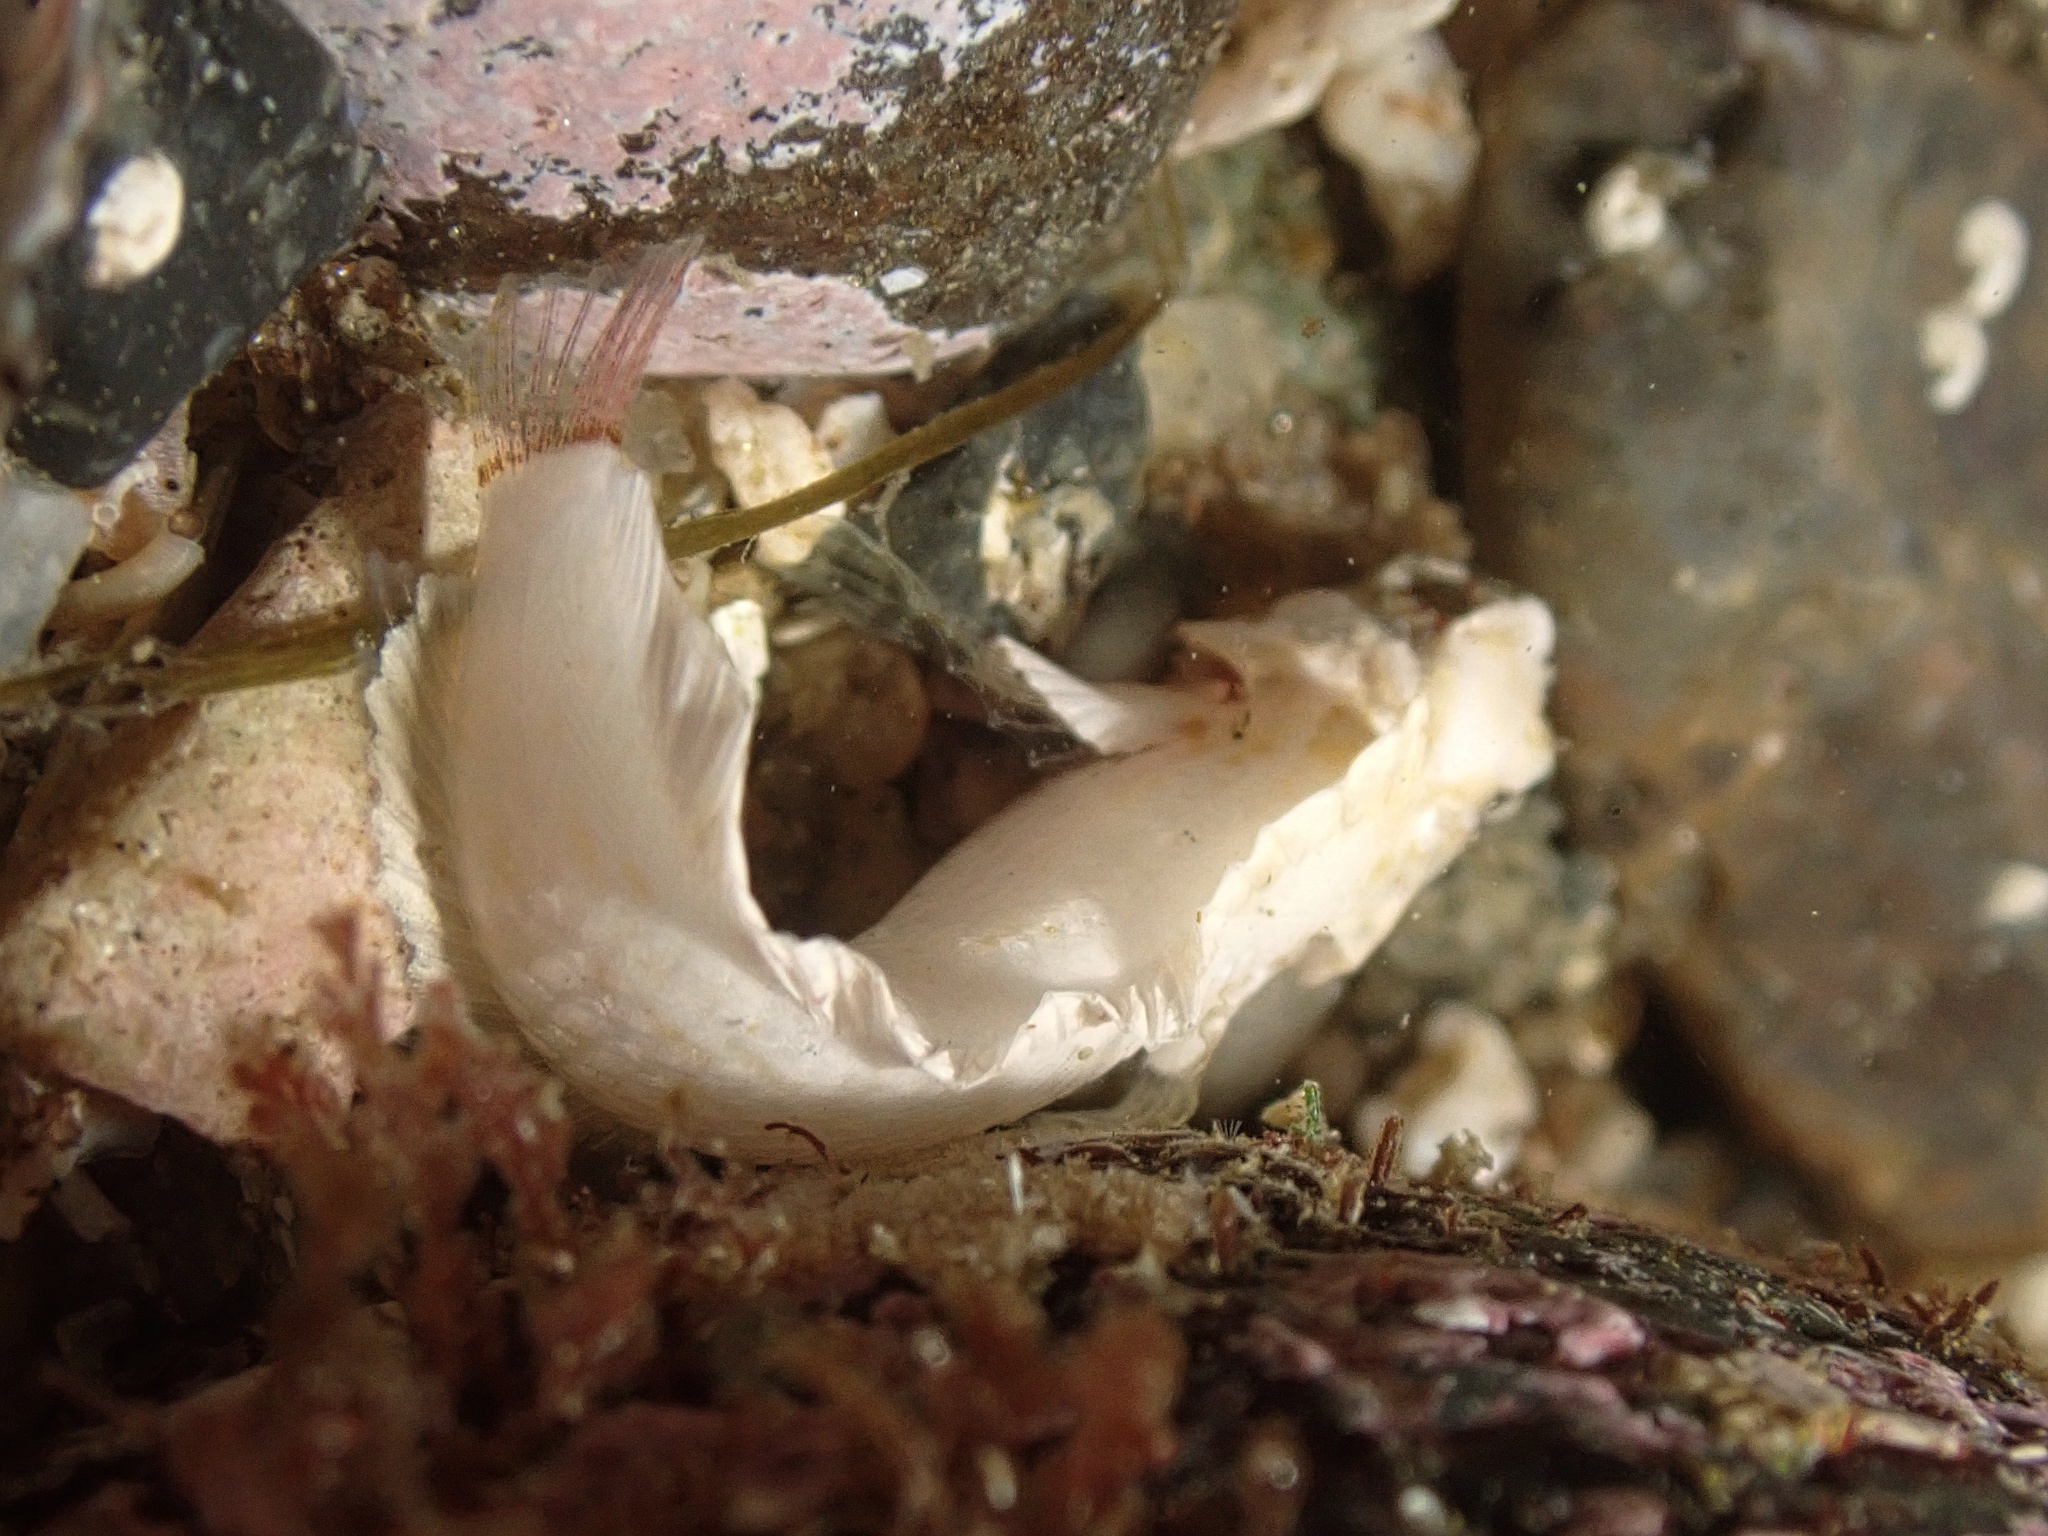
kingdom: Animalia
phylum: Chordata
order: Perciformes
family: Labrisomidae
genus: Paraclinus
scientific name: Paraclinus integripinnis
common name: Reef finspot
